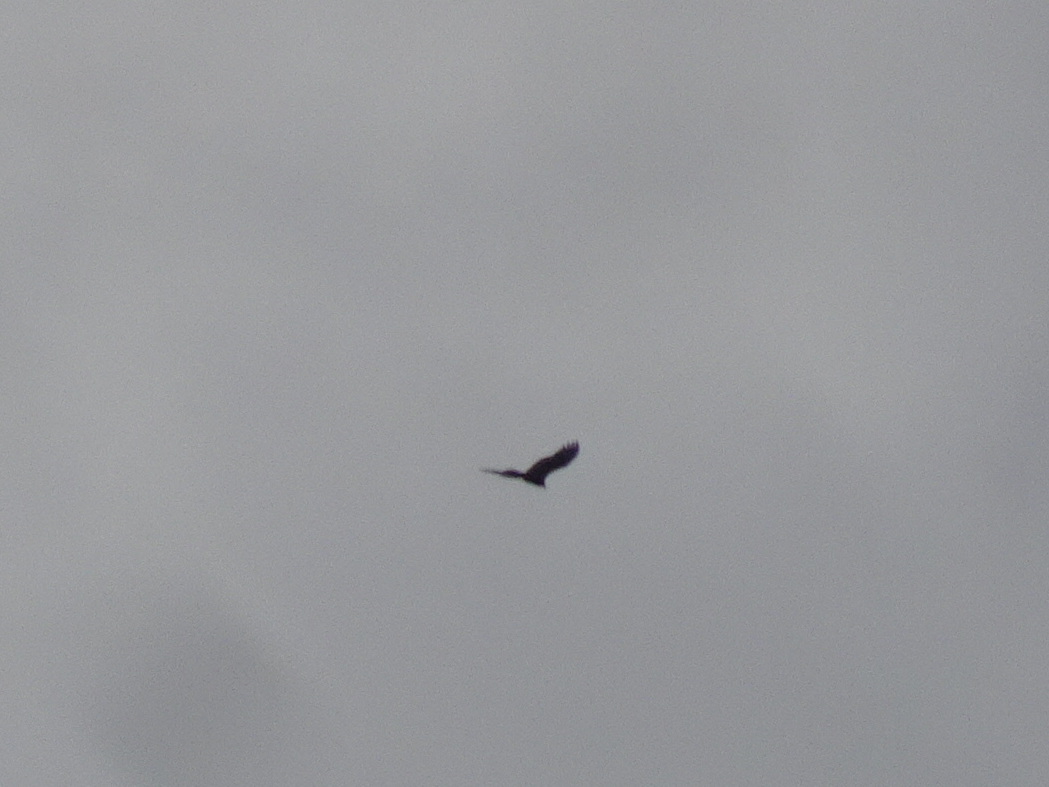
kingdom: Animalia
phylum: Chordata
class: Aves
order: Accipitriformes
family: Cathartidae
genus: Cathartes
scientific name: Cathartes aura
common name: Turkey vulture
